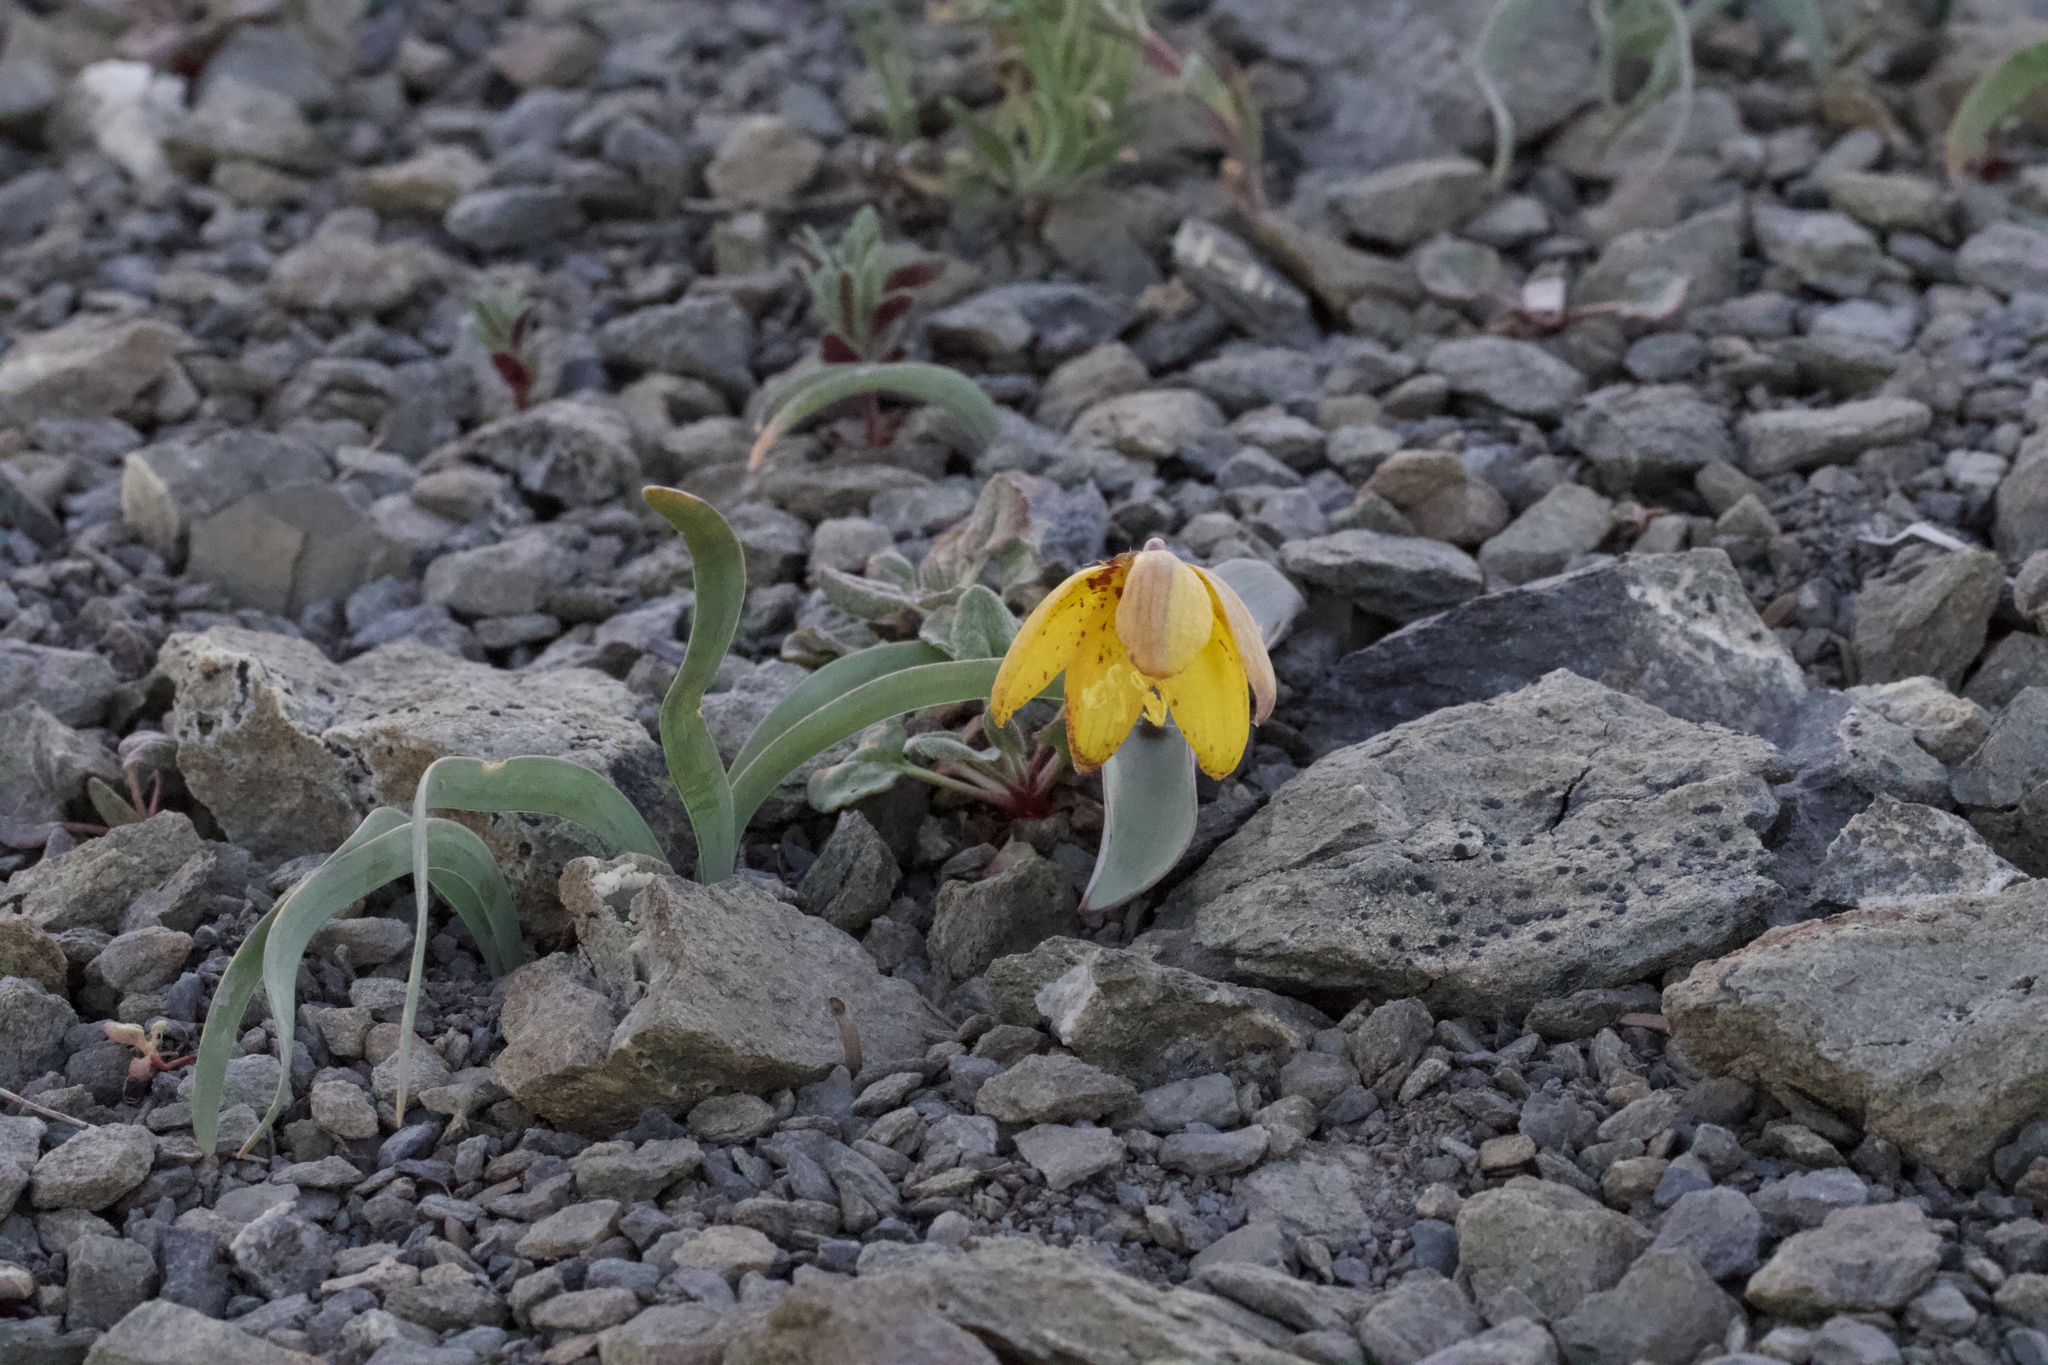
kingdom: Plantae
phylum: Tracheophyta
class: Liliopsida
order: Liliales
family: Liliaceae
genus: Fritillaria
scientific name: Fritillaria glauca
